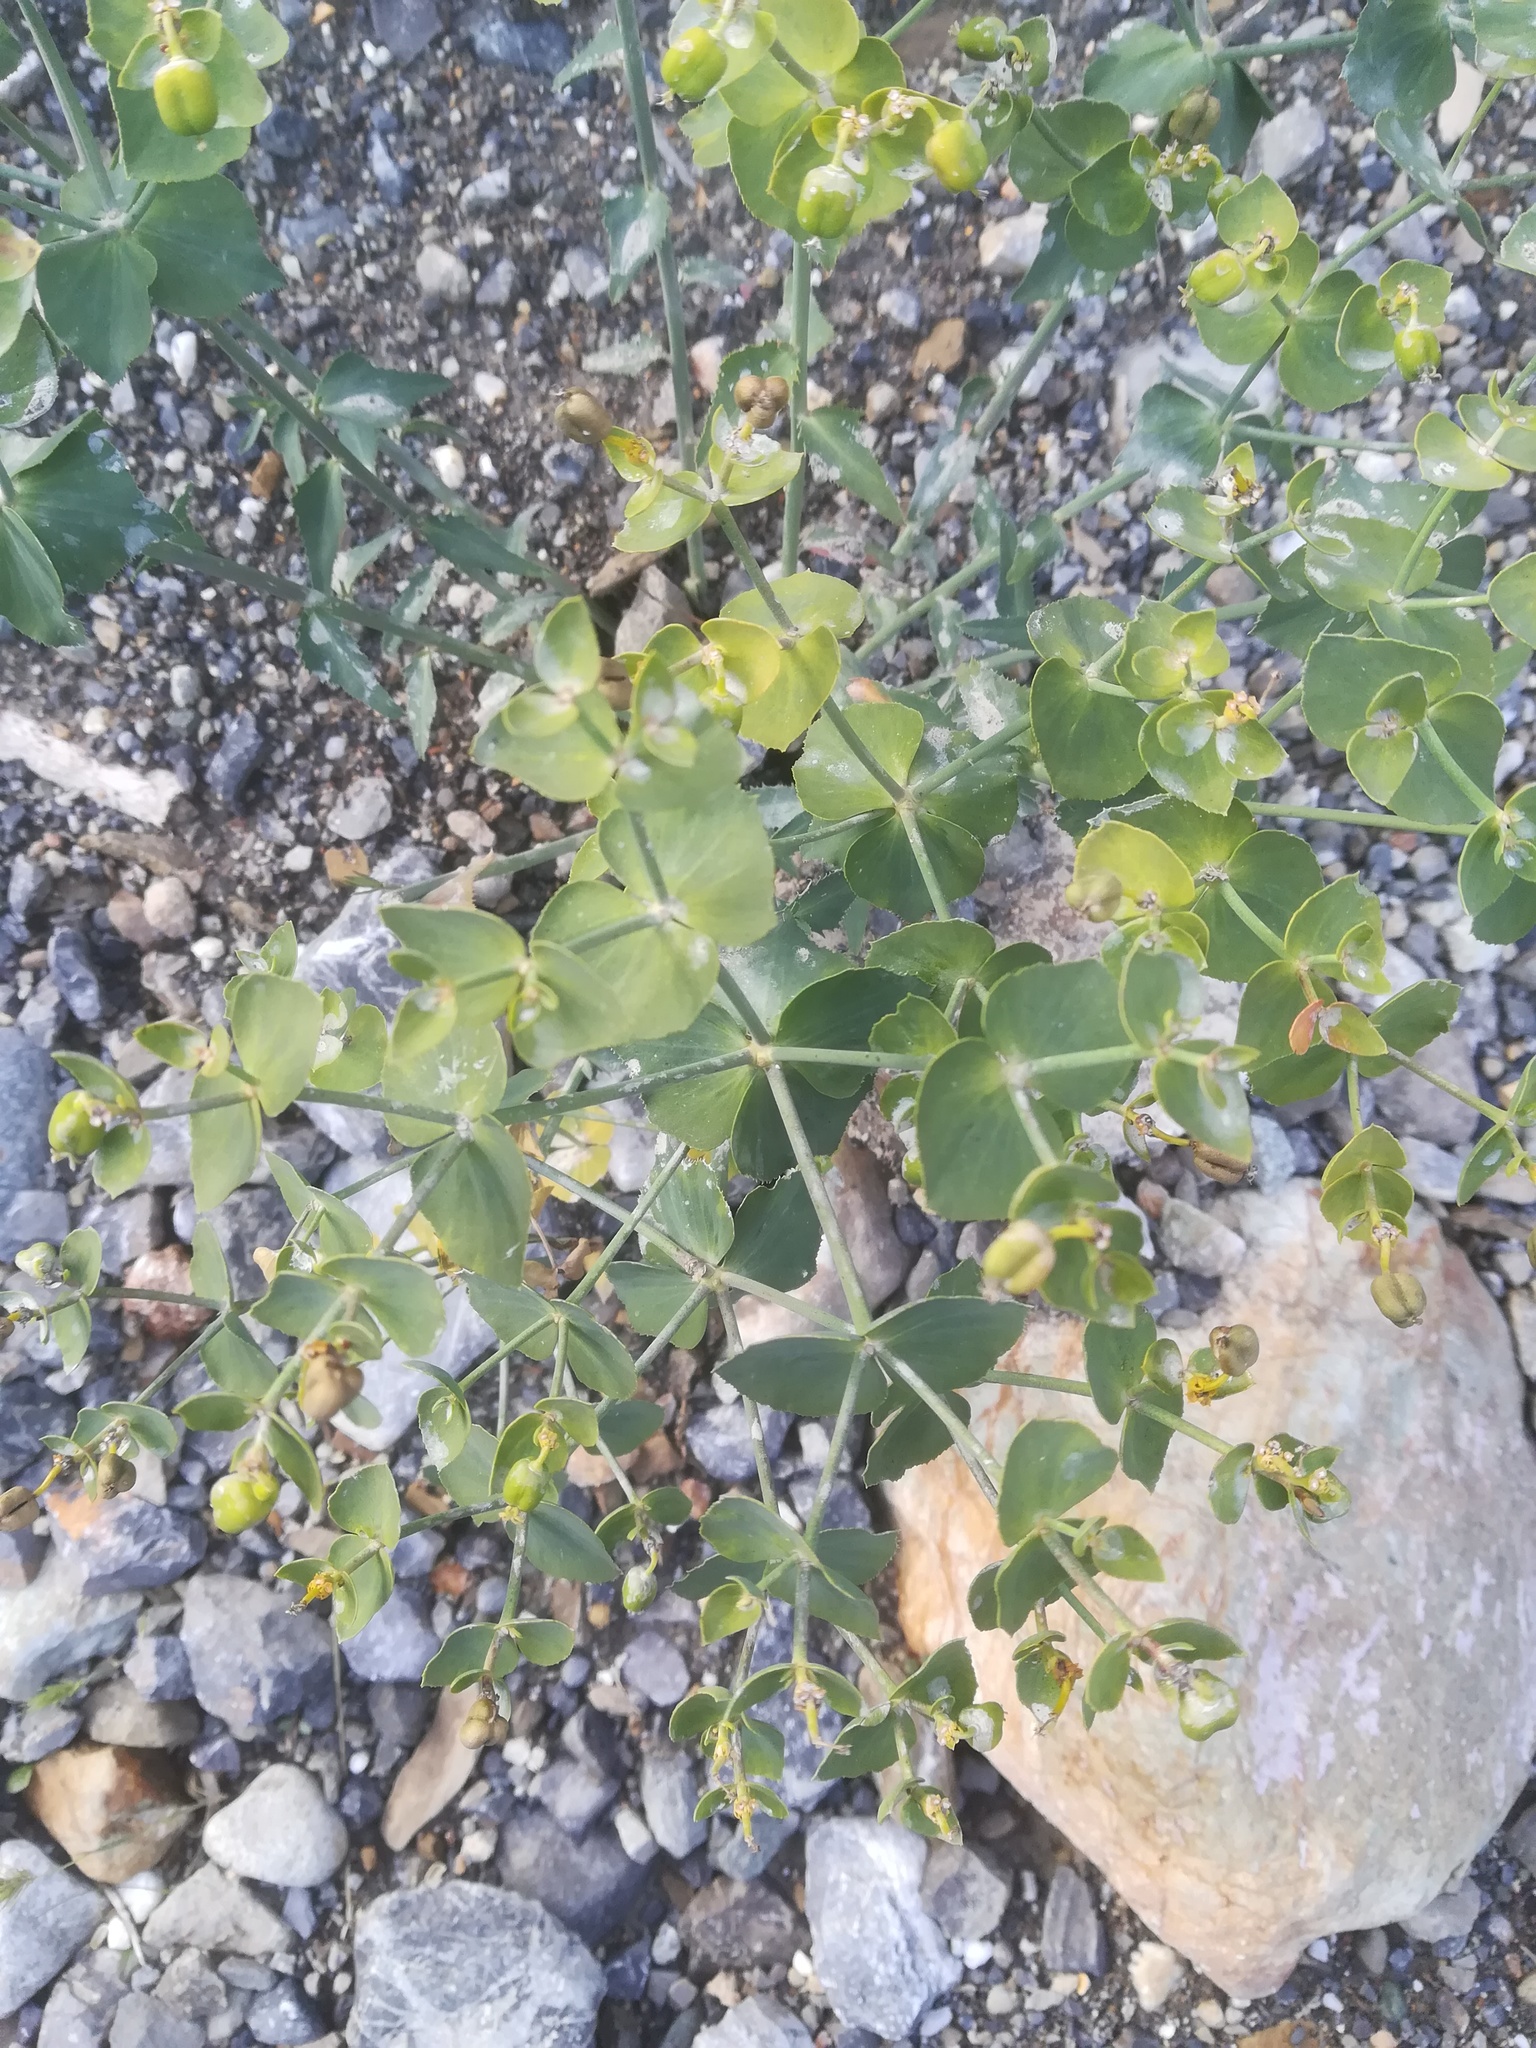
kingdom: Plantae
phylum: Tracheophyta
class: Magnoliopsida
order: Malpighiales
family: Euphorbiaceae
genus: Euphorbia
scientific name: Euphorbia serrata
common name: Serrate spurge
